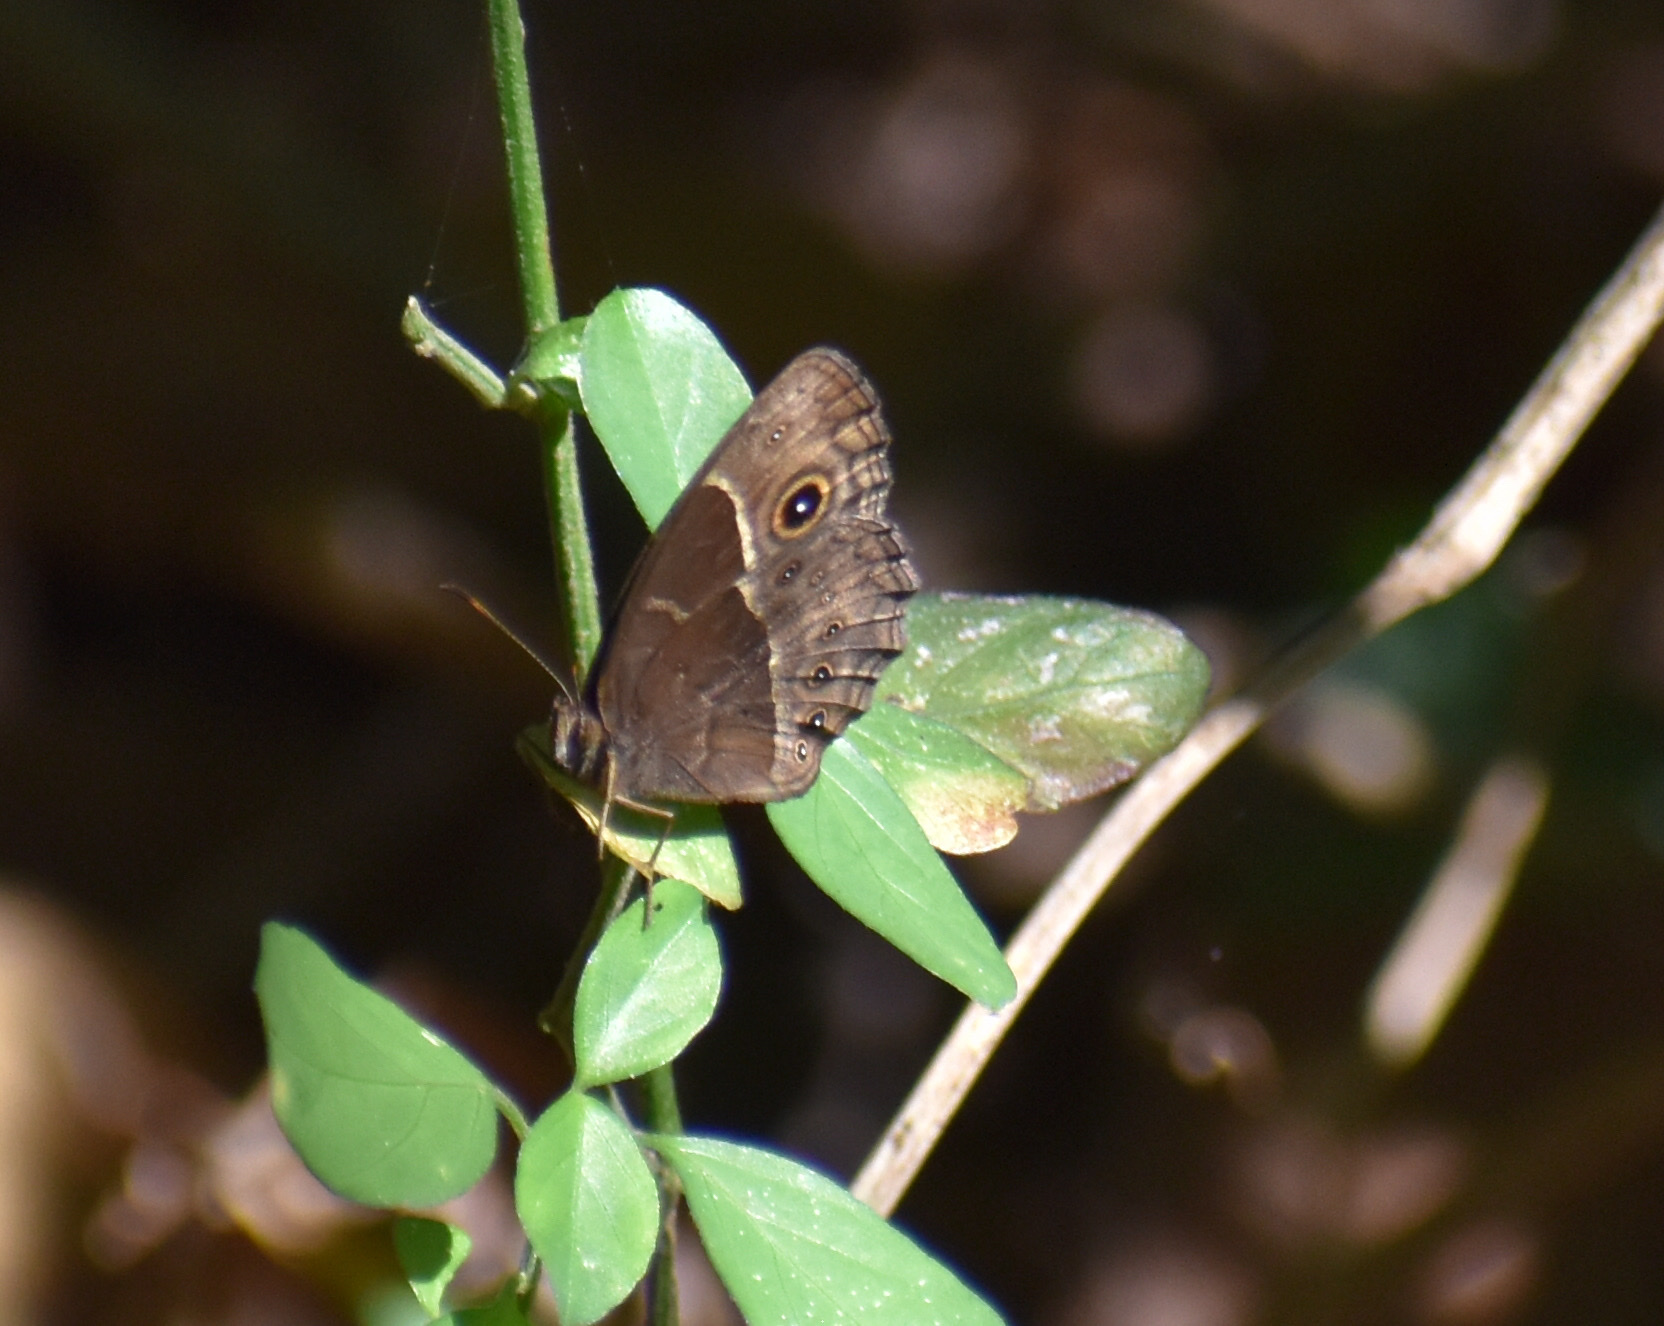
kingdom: Animalia
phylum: Arthropoda
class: Insecta
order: Lepidoptera
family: Nymphalidae
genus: Mycalesis
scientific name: Mycalesis rhacotis
